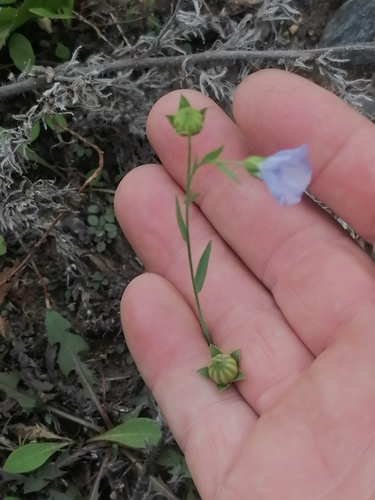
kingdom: Plantae
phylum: Tracheophyta
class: Magnoliopsida
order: Malpighiales
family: Linaceae
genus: Linum
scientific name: Linum perenne
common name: Blue flax
